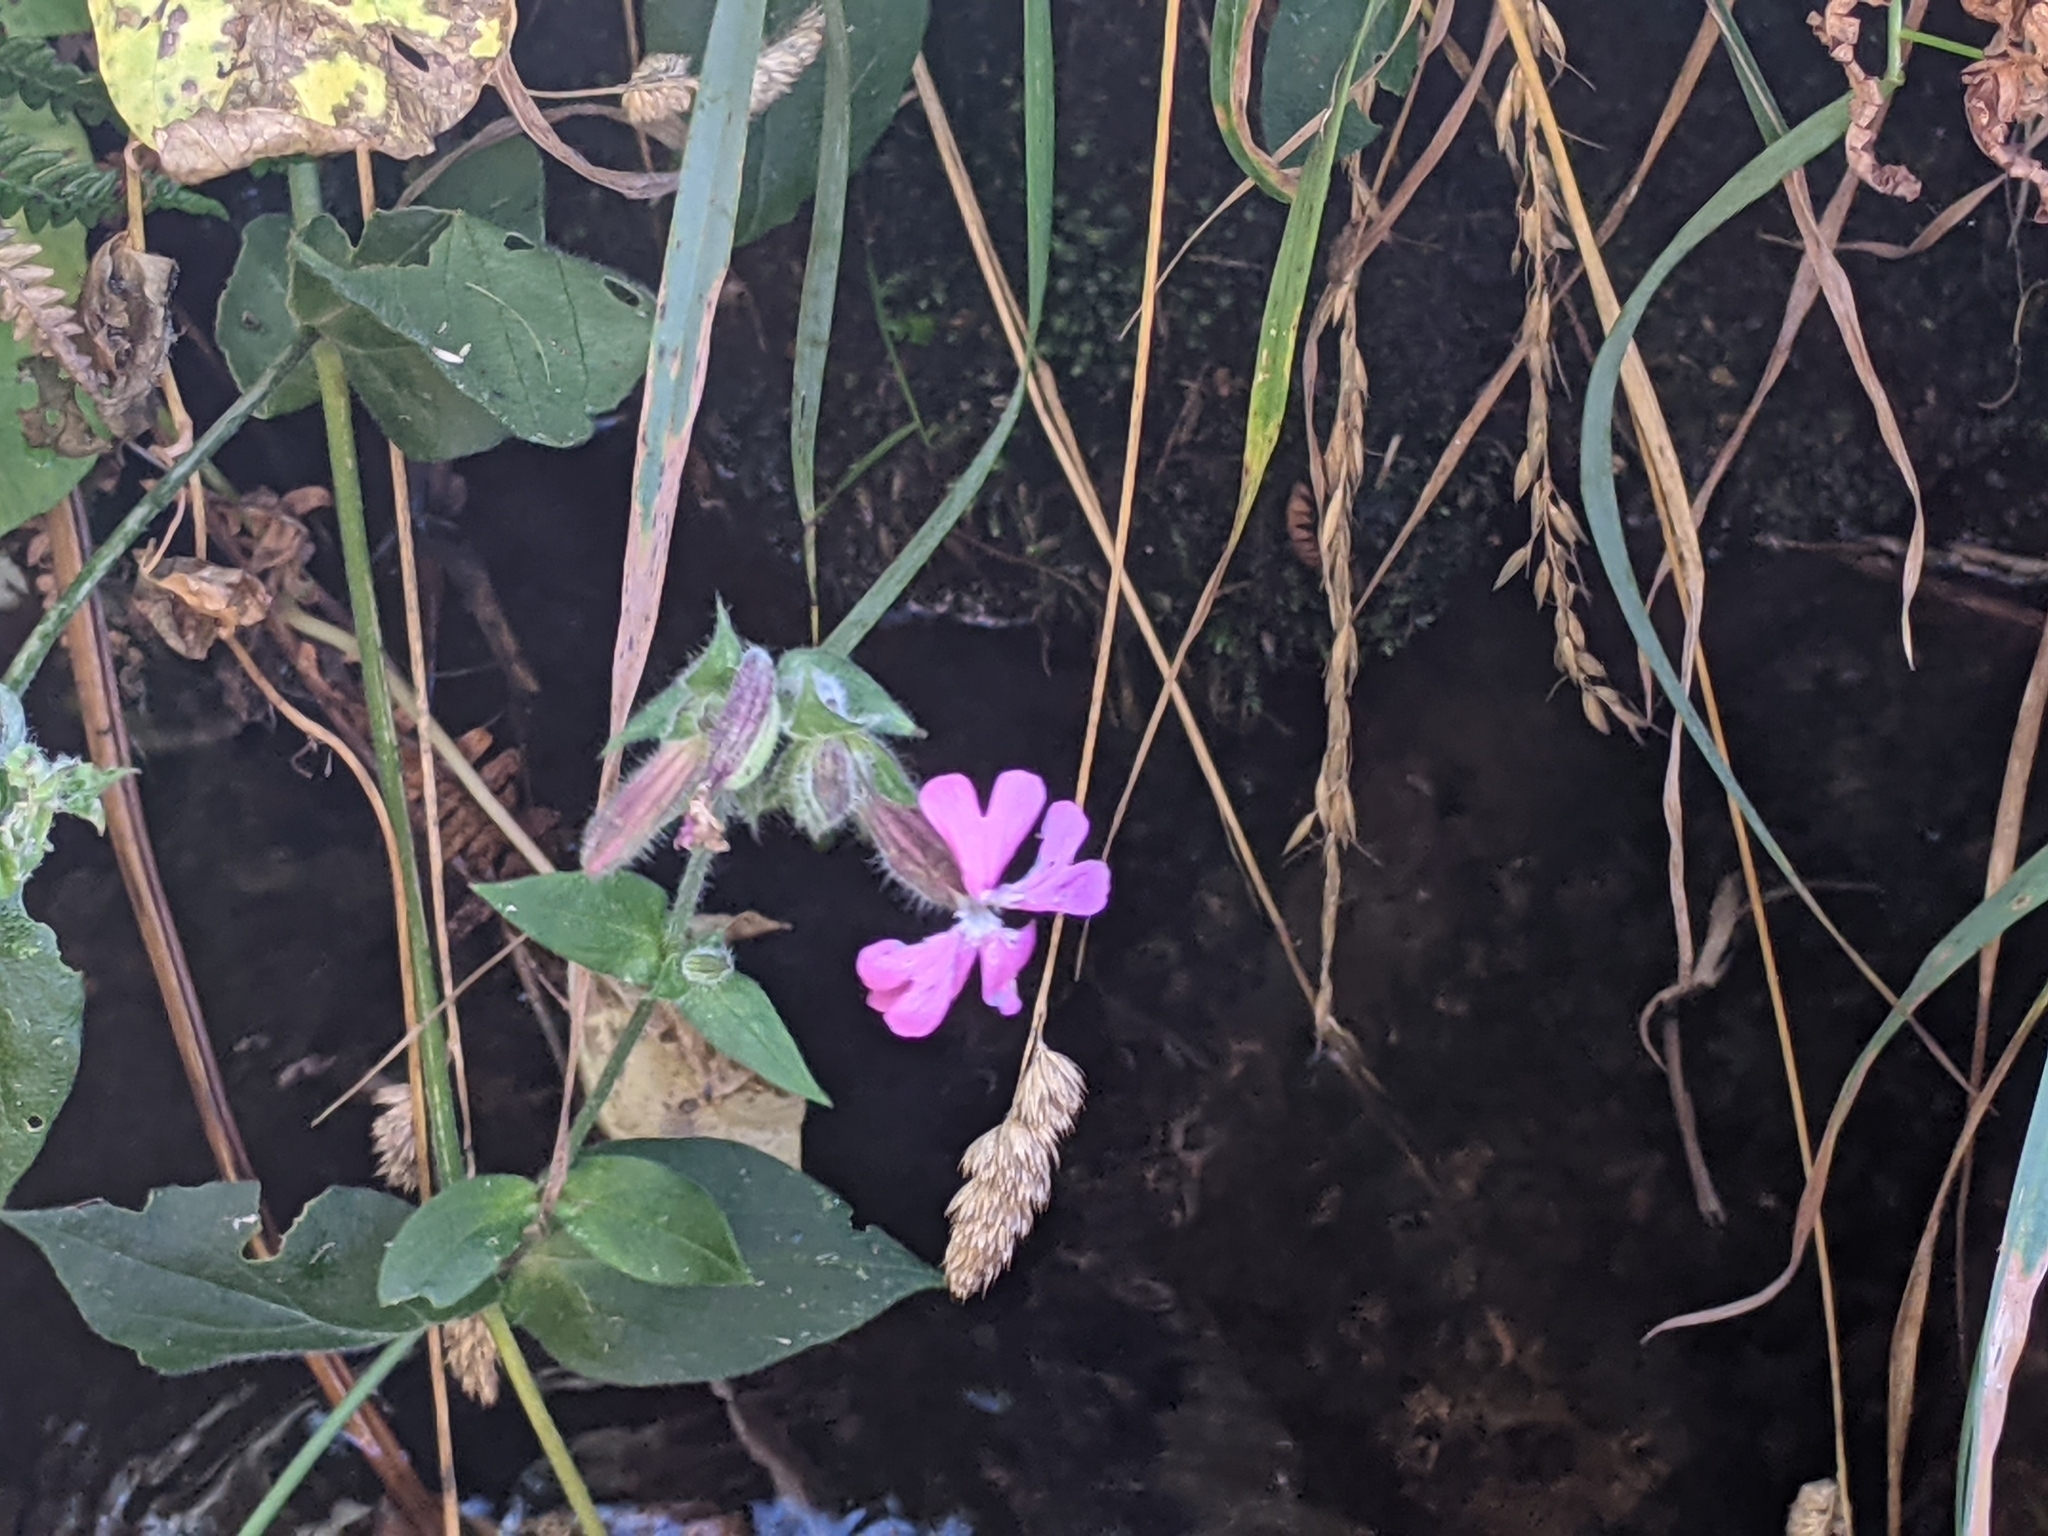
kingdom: Plantae
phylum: Tracheophyta
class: Magnoliopsida
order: Caryophyllales
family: Caryophyllaceae
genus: Silene
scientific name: Silene dioica
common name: Red campion
